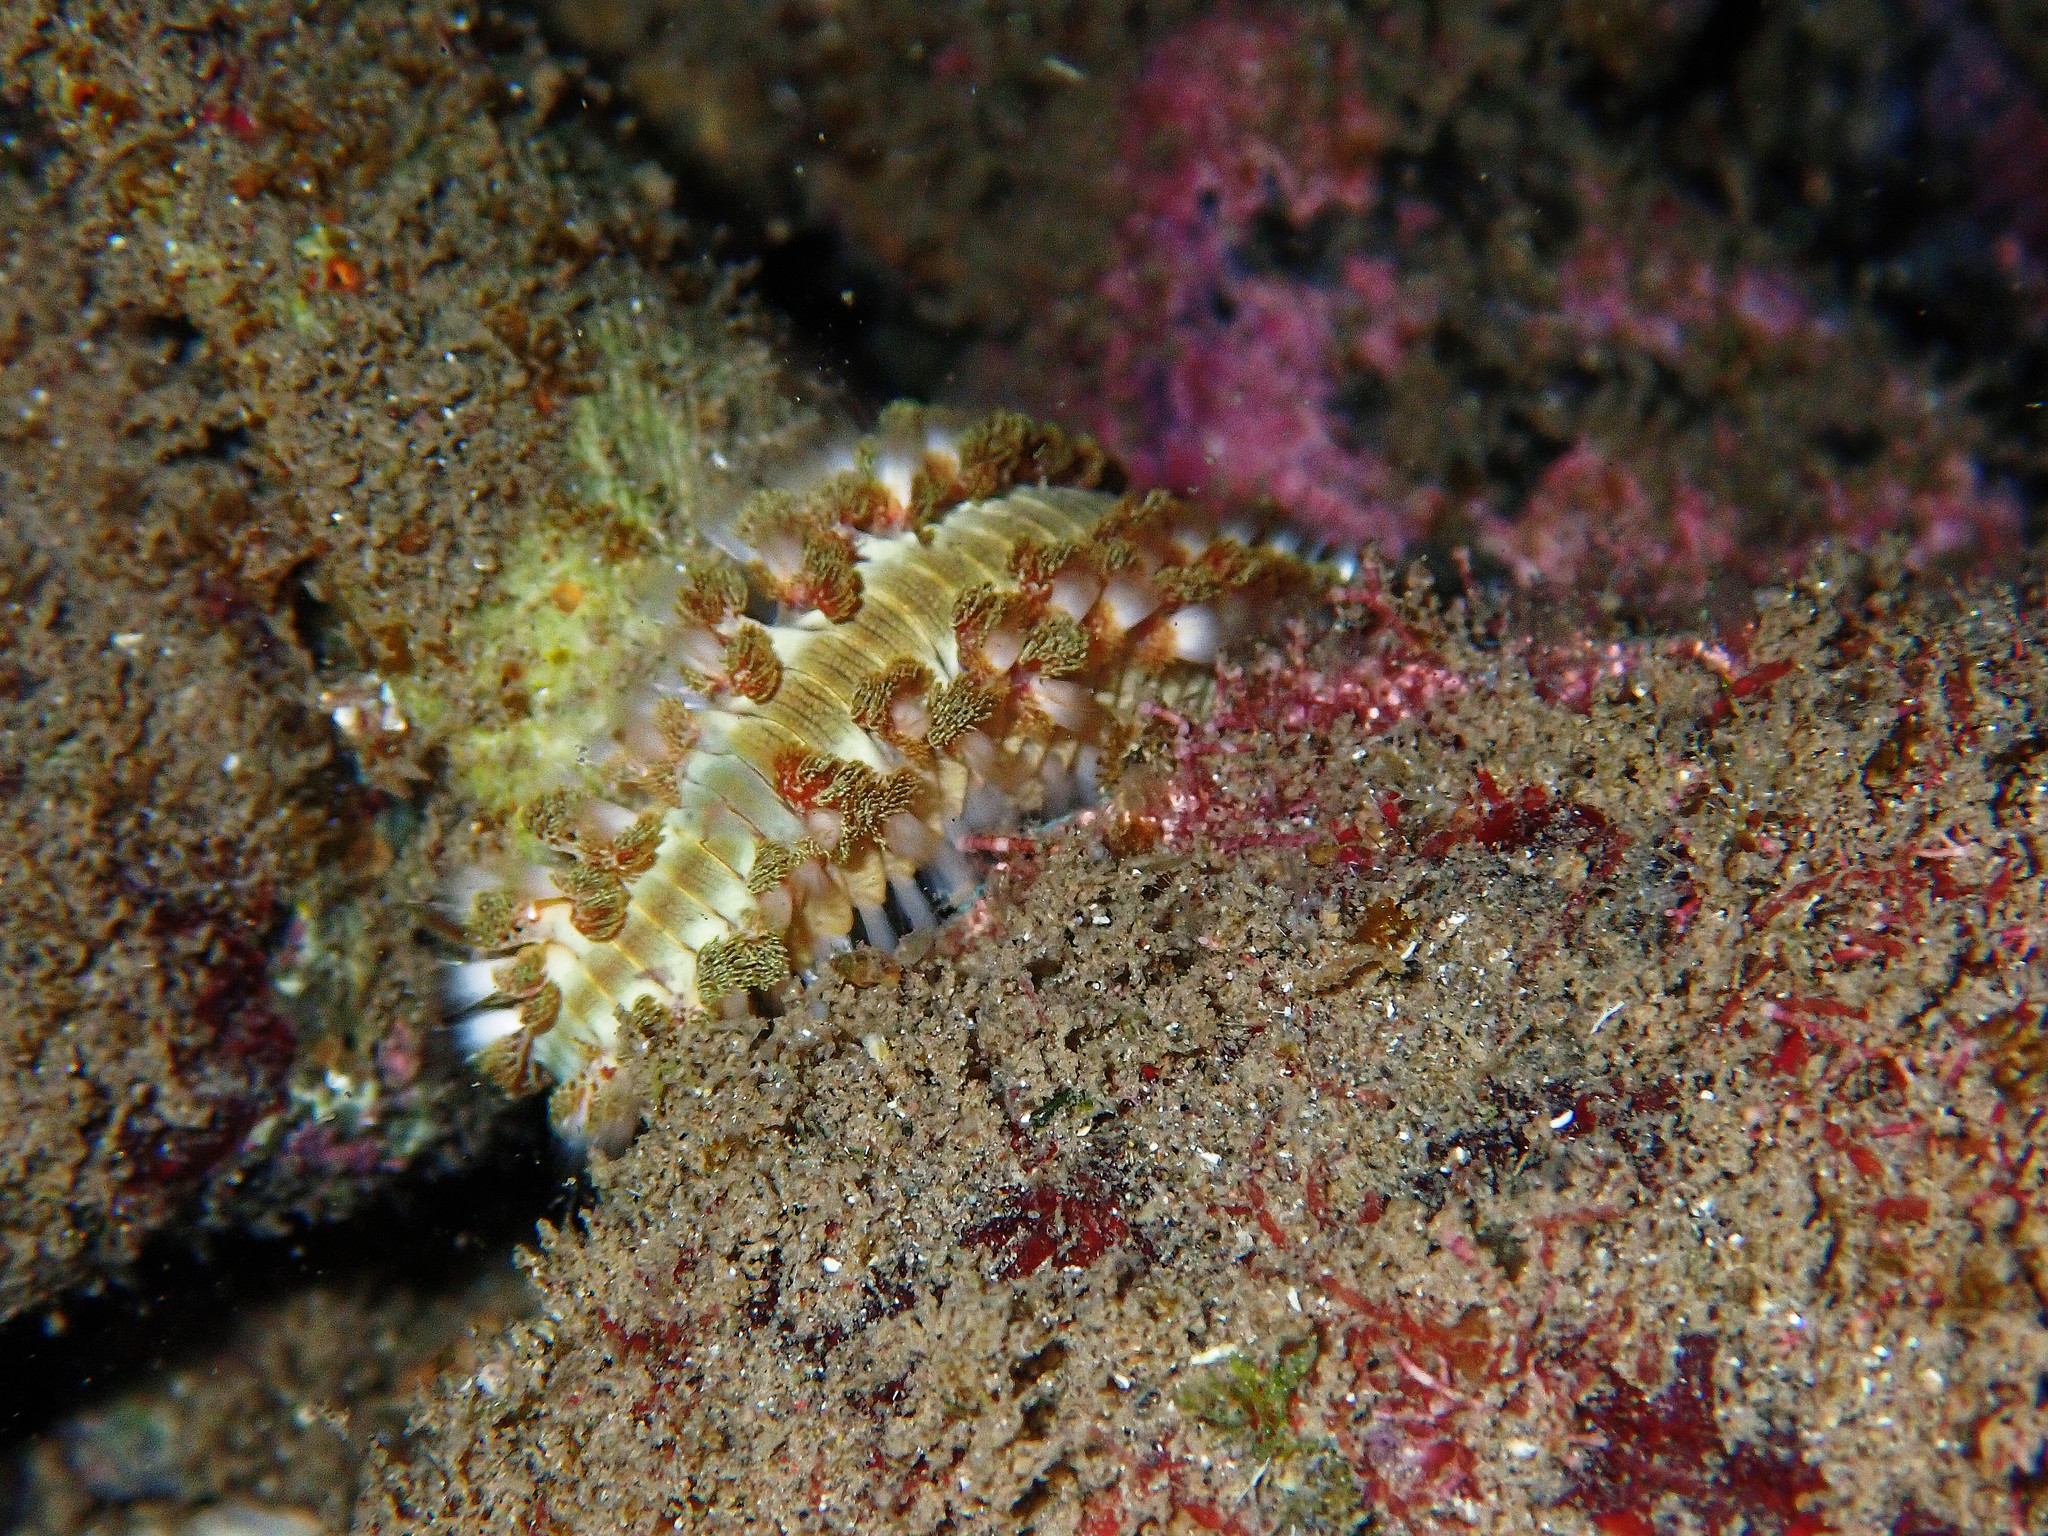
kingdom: Animalia
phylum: Annelida
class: Polychaeta
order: Amphinomida
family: Amphinomidae
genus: Hermodice
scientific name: Hermodice carunculata
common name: Bearded fireworm
